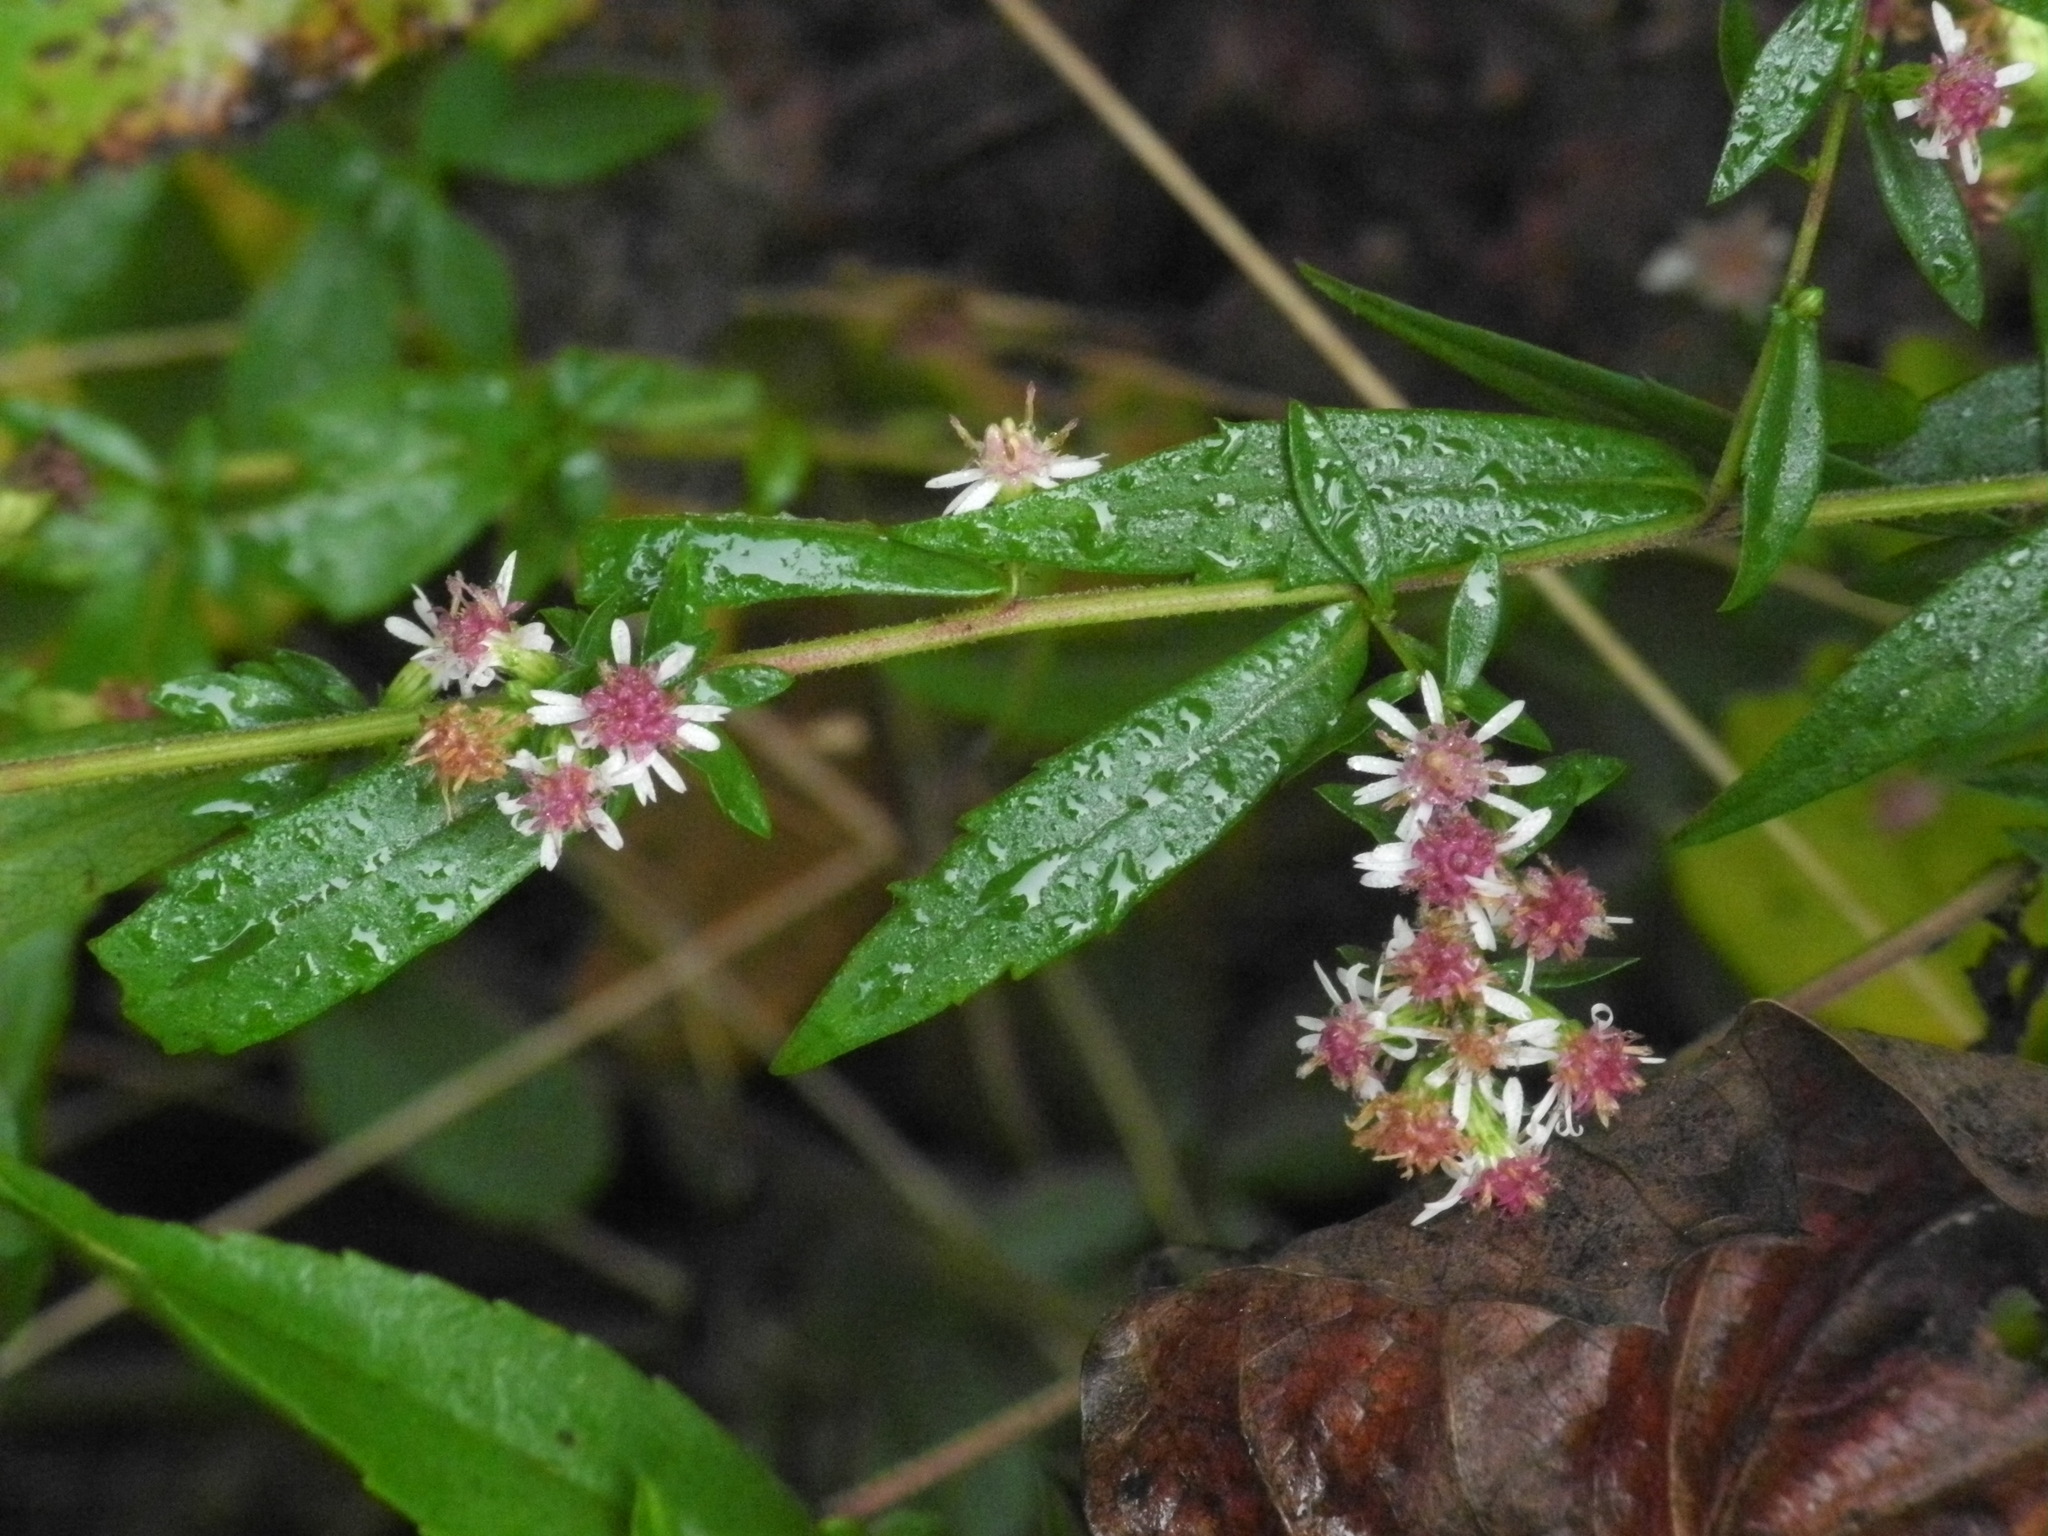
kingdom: Plantae
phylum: Tracheophyta
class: Magnoliopsida
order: Asterales
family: Asteraceae
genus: Symphyotrichum
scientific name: Symphyotrichum lateriflorum
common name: Calico aster
